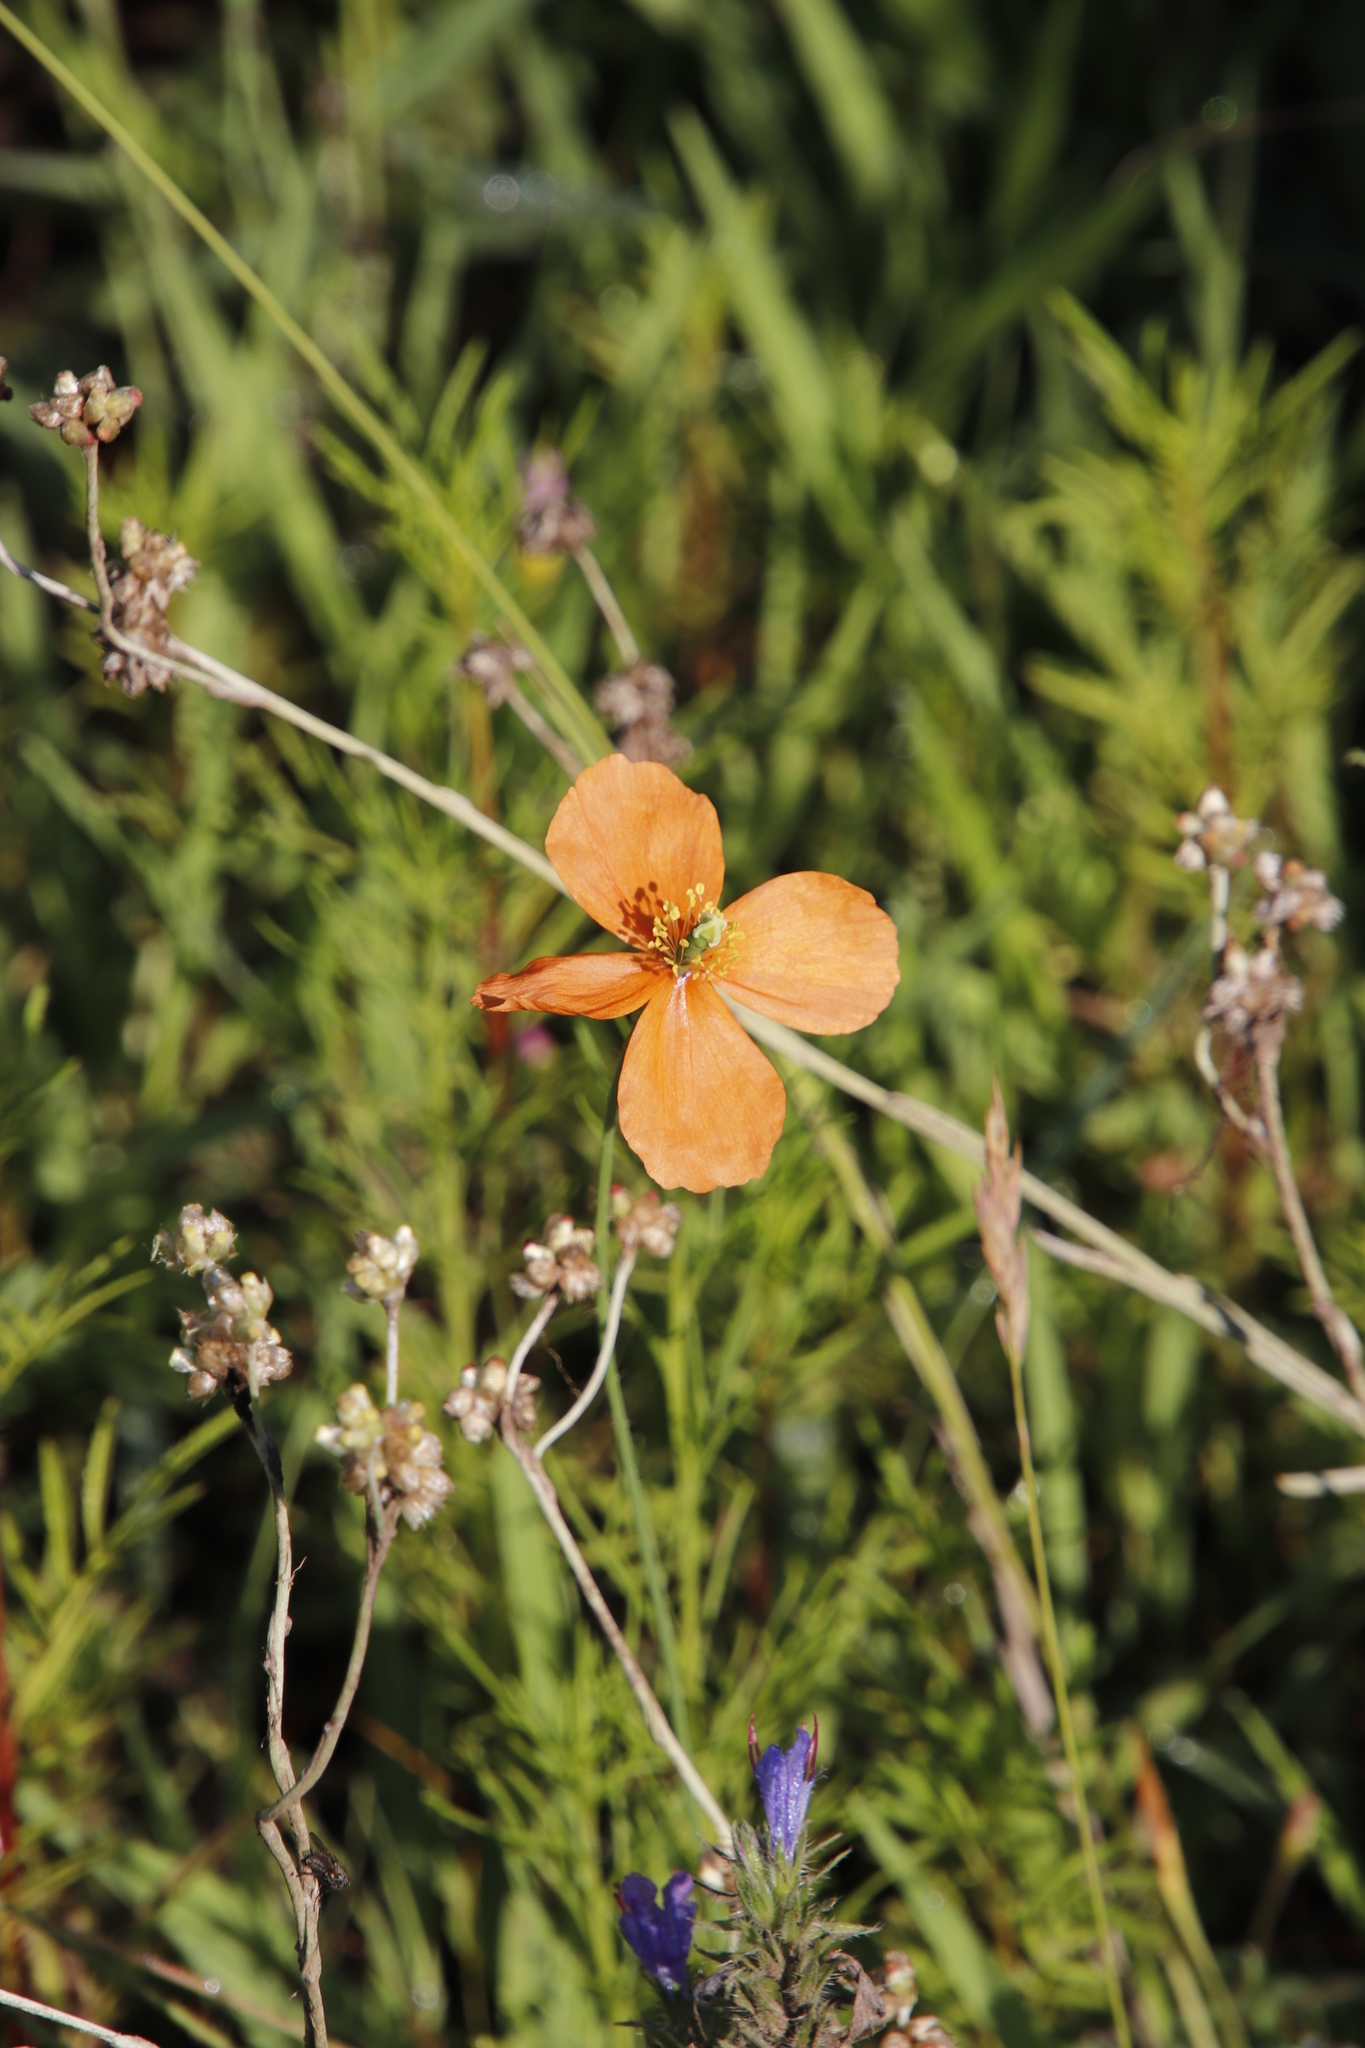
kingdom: Plantae
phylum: Tracheophyta
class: Magnoliopsida
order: Ranunculales
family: Papaveraceae
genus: Papaver
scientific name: Papaver aculeatum
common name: Bristle poppy
